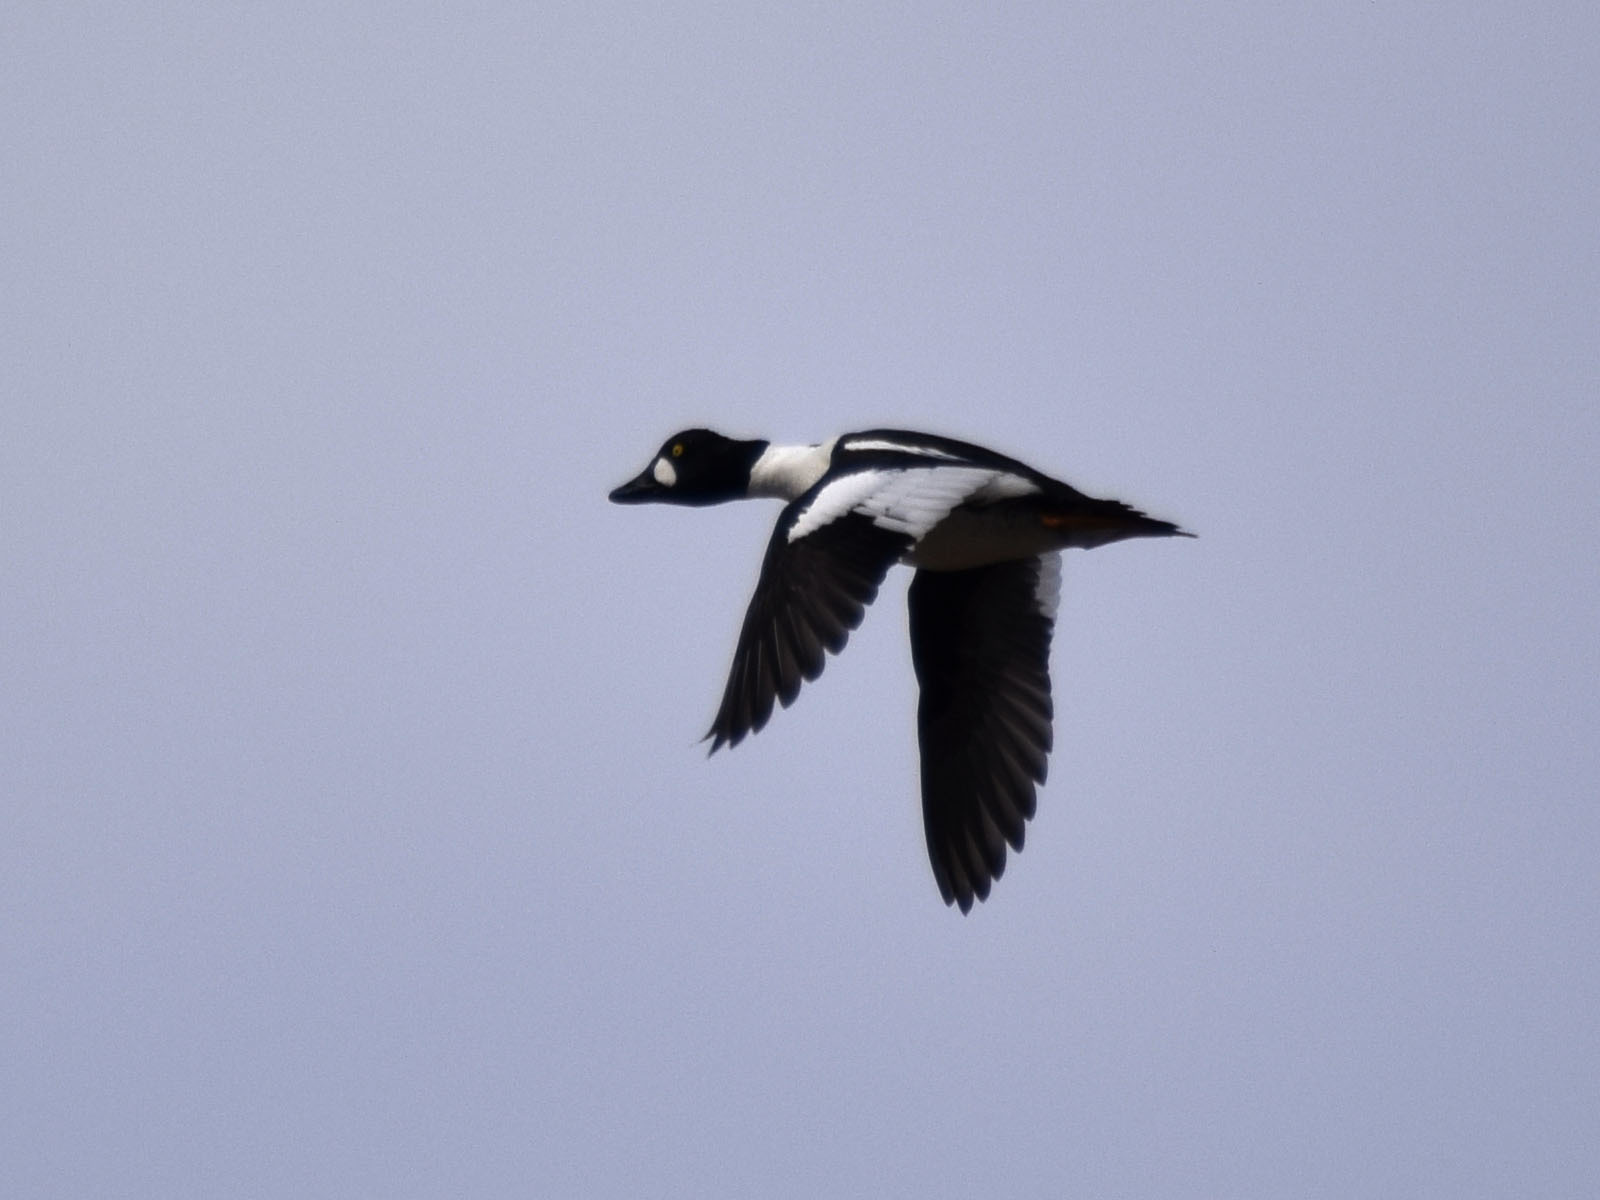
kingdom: Animalia
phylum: Chordata
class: Aves
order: Anseriformes
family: Anatidae
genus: Bucephala
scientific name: Bucephala clangula
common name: Common goldeneye
